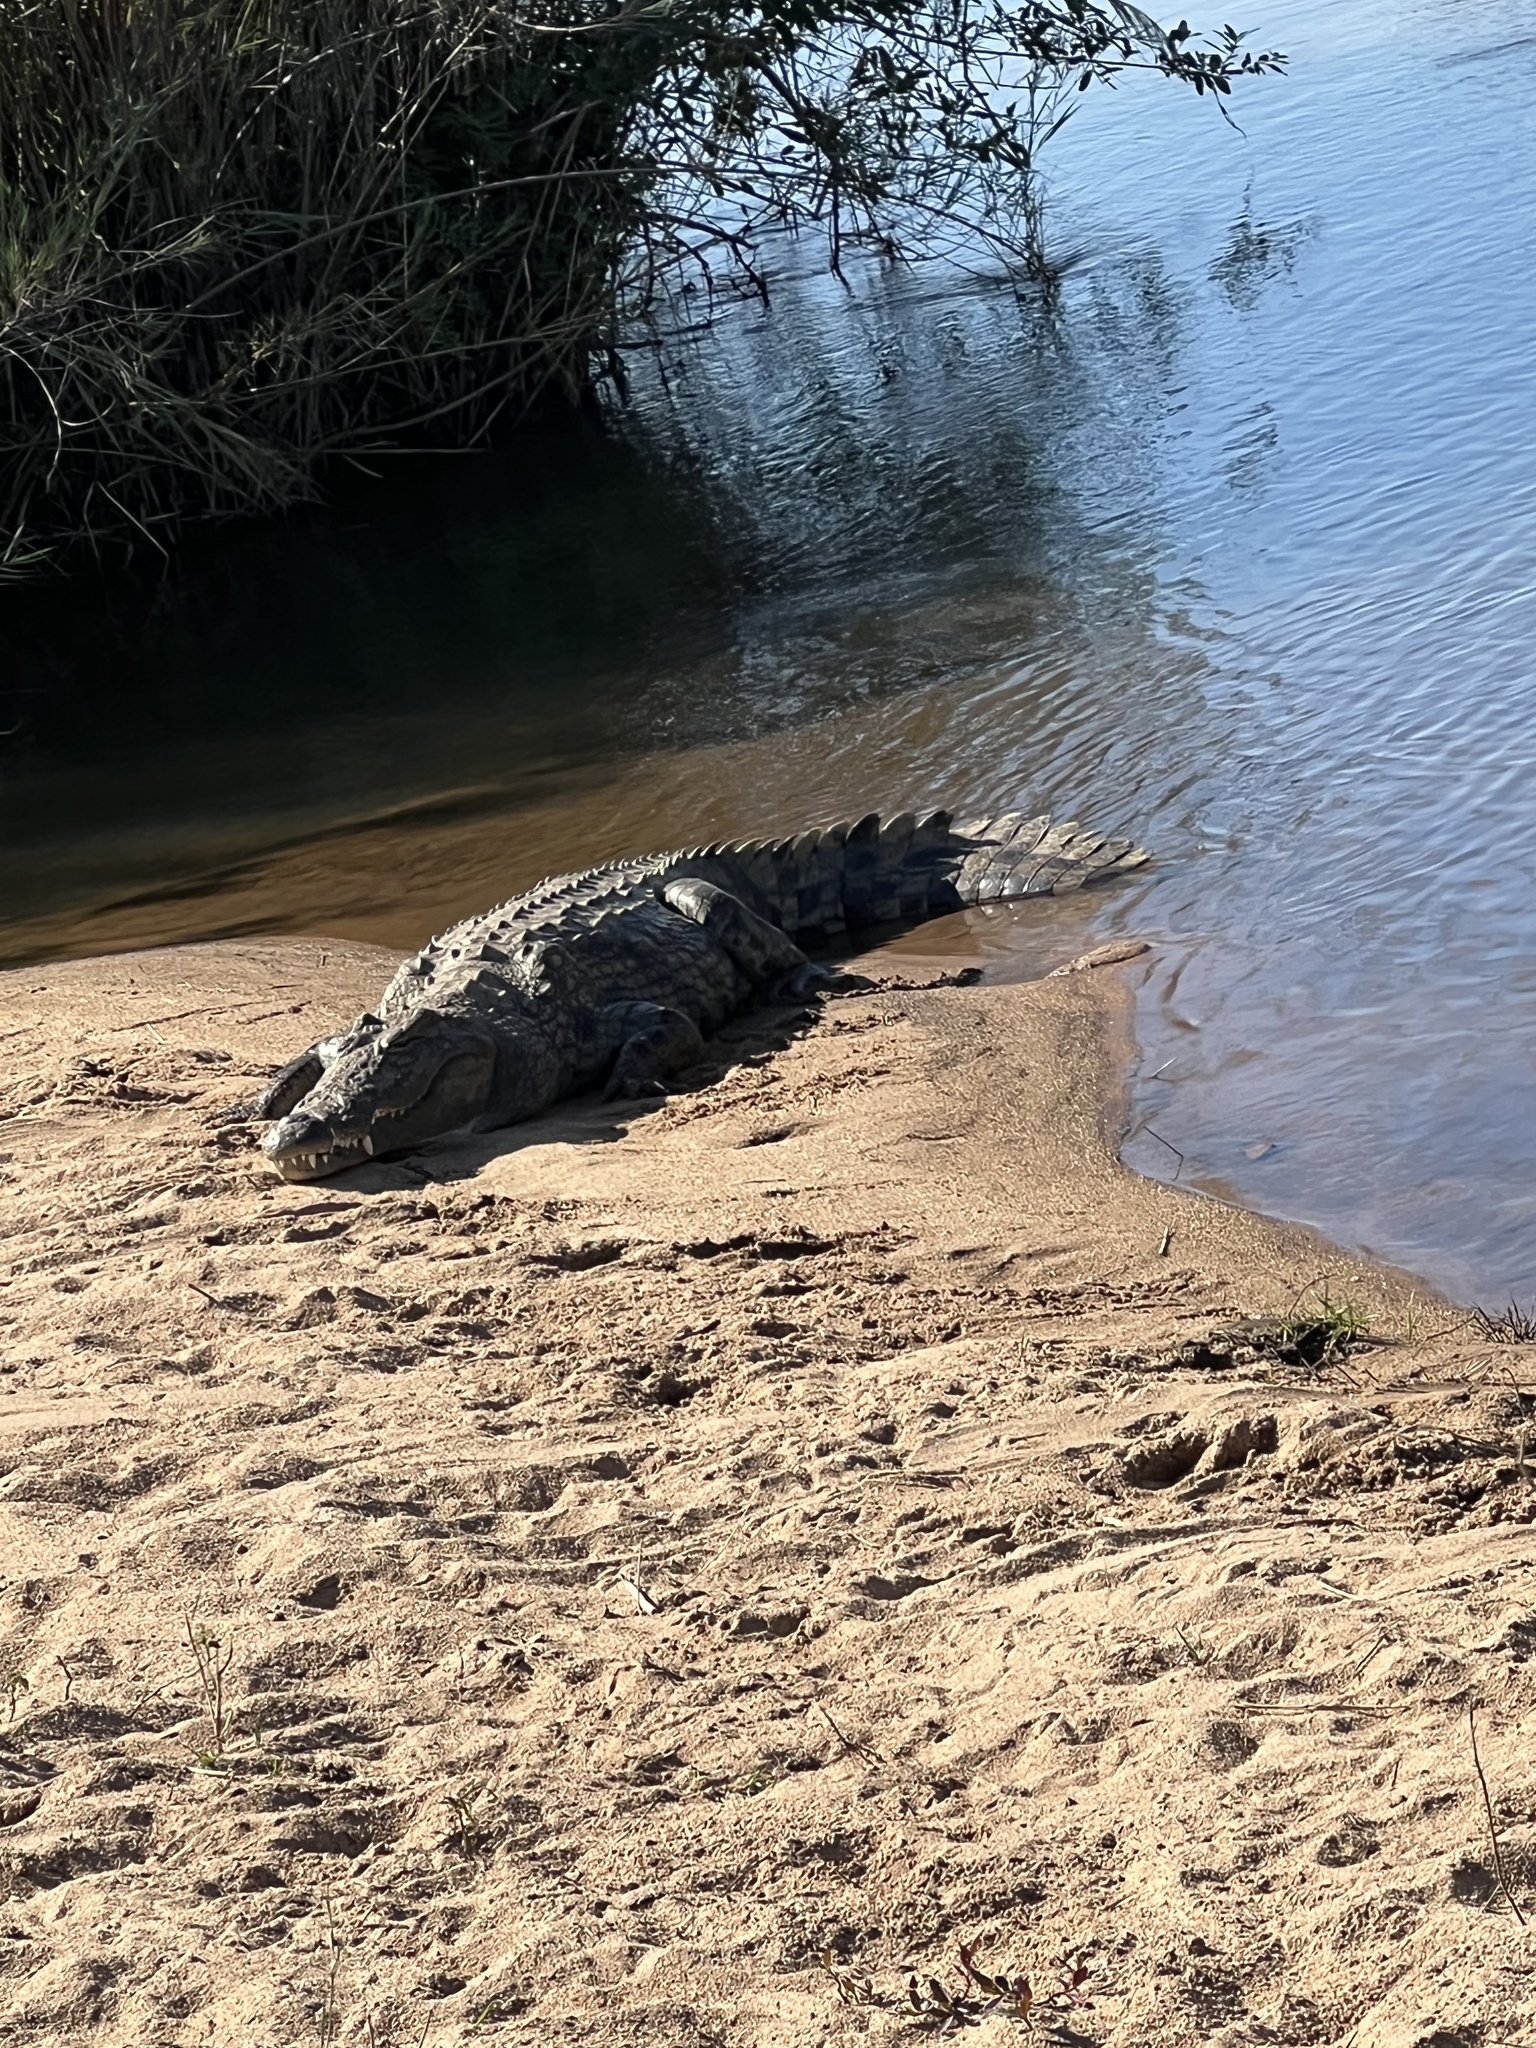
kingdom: Animalia
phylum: Chordata
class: Crocodylia
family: Crocodylidae
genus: Crocodylus
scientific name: Crocodylus niloticus
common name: Nile crocodile
